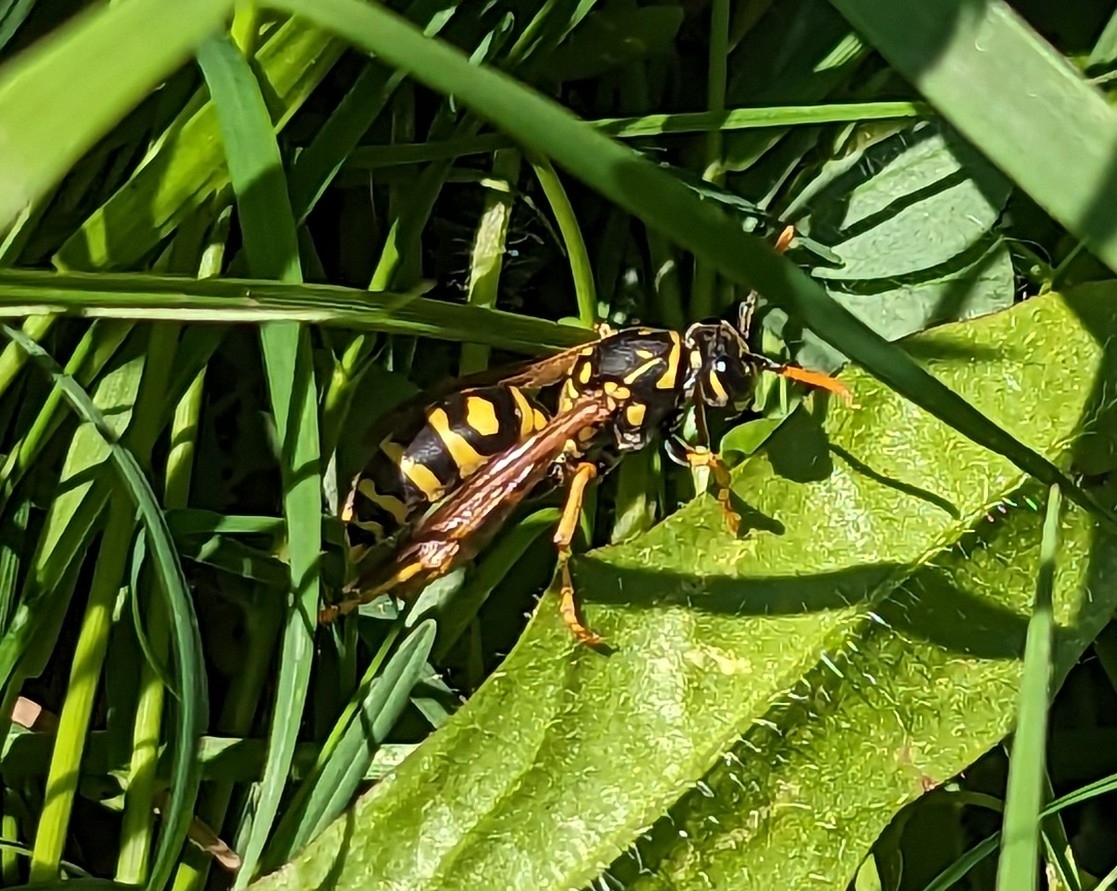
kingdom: Animalia
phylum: Arthropoda
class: Insecta
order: Hymenoptera
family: Eumenidae
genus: Polistes
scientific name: Polistes dominula
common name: Paper wasp
